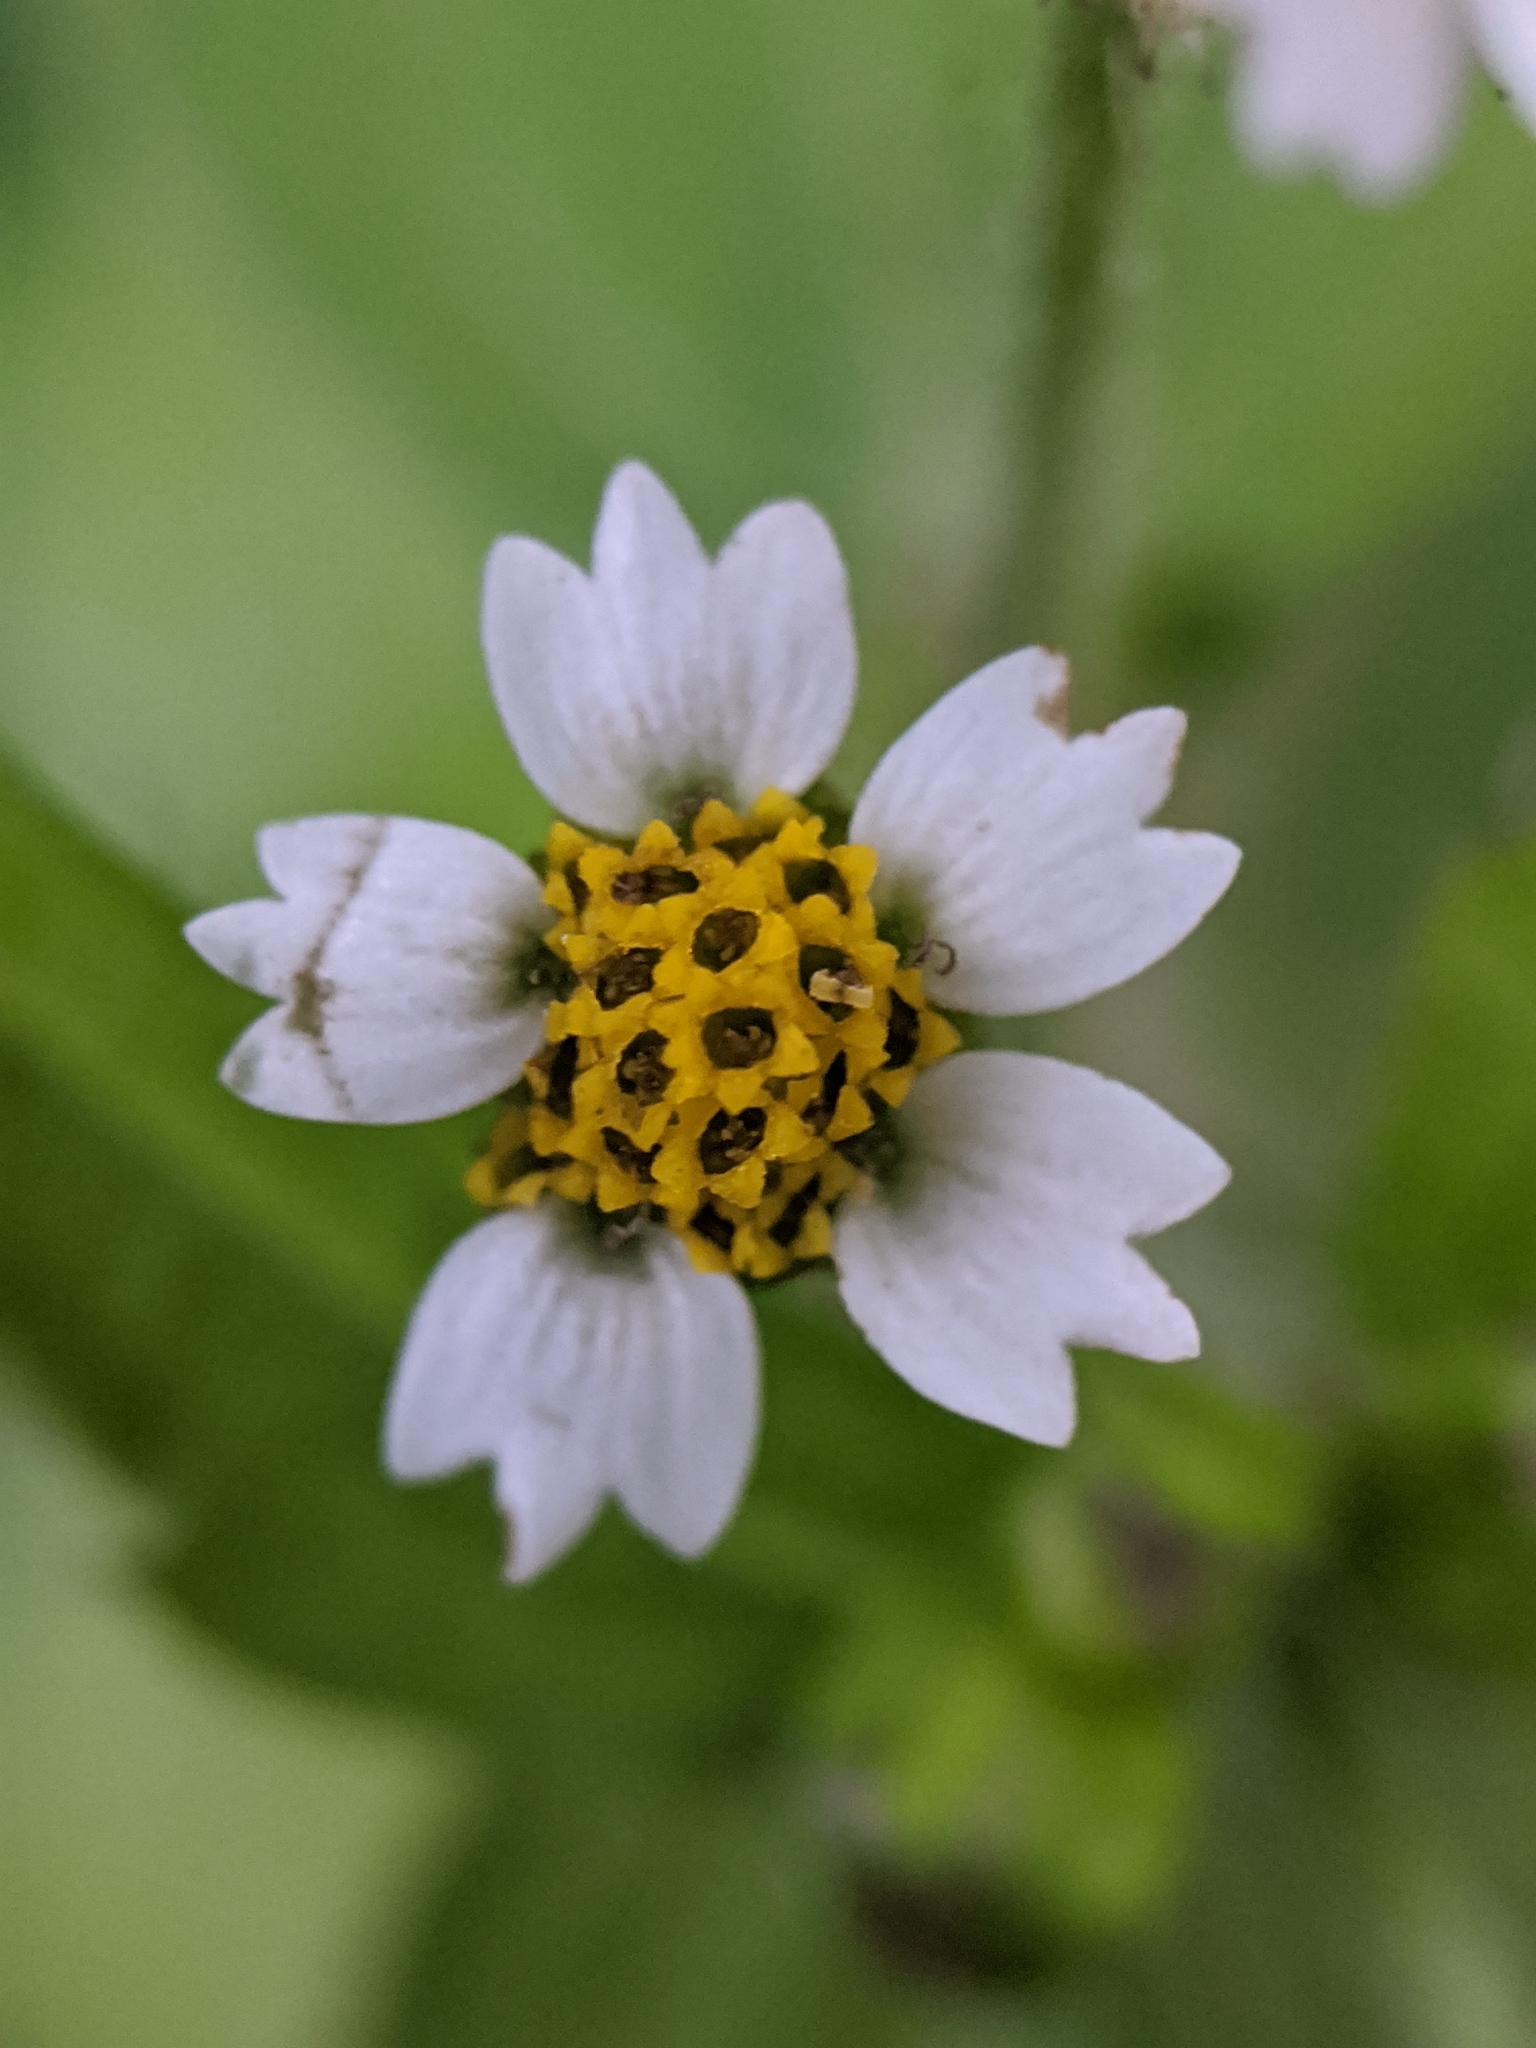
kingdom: Plantae
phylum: Tracheophyta
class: Magnoliopsida
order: Asterales
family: Asteraceae
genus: Galinsoga
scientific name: Galinsoga quadriradiata
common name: Shaggy soldier
